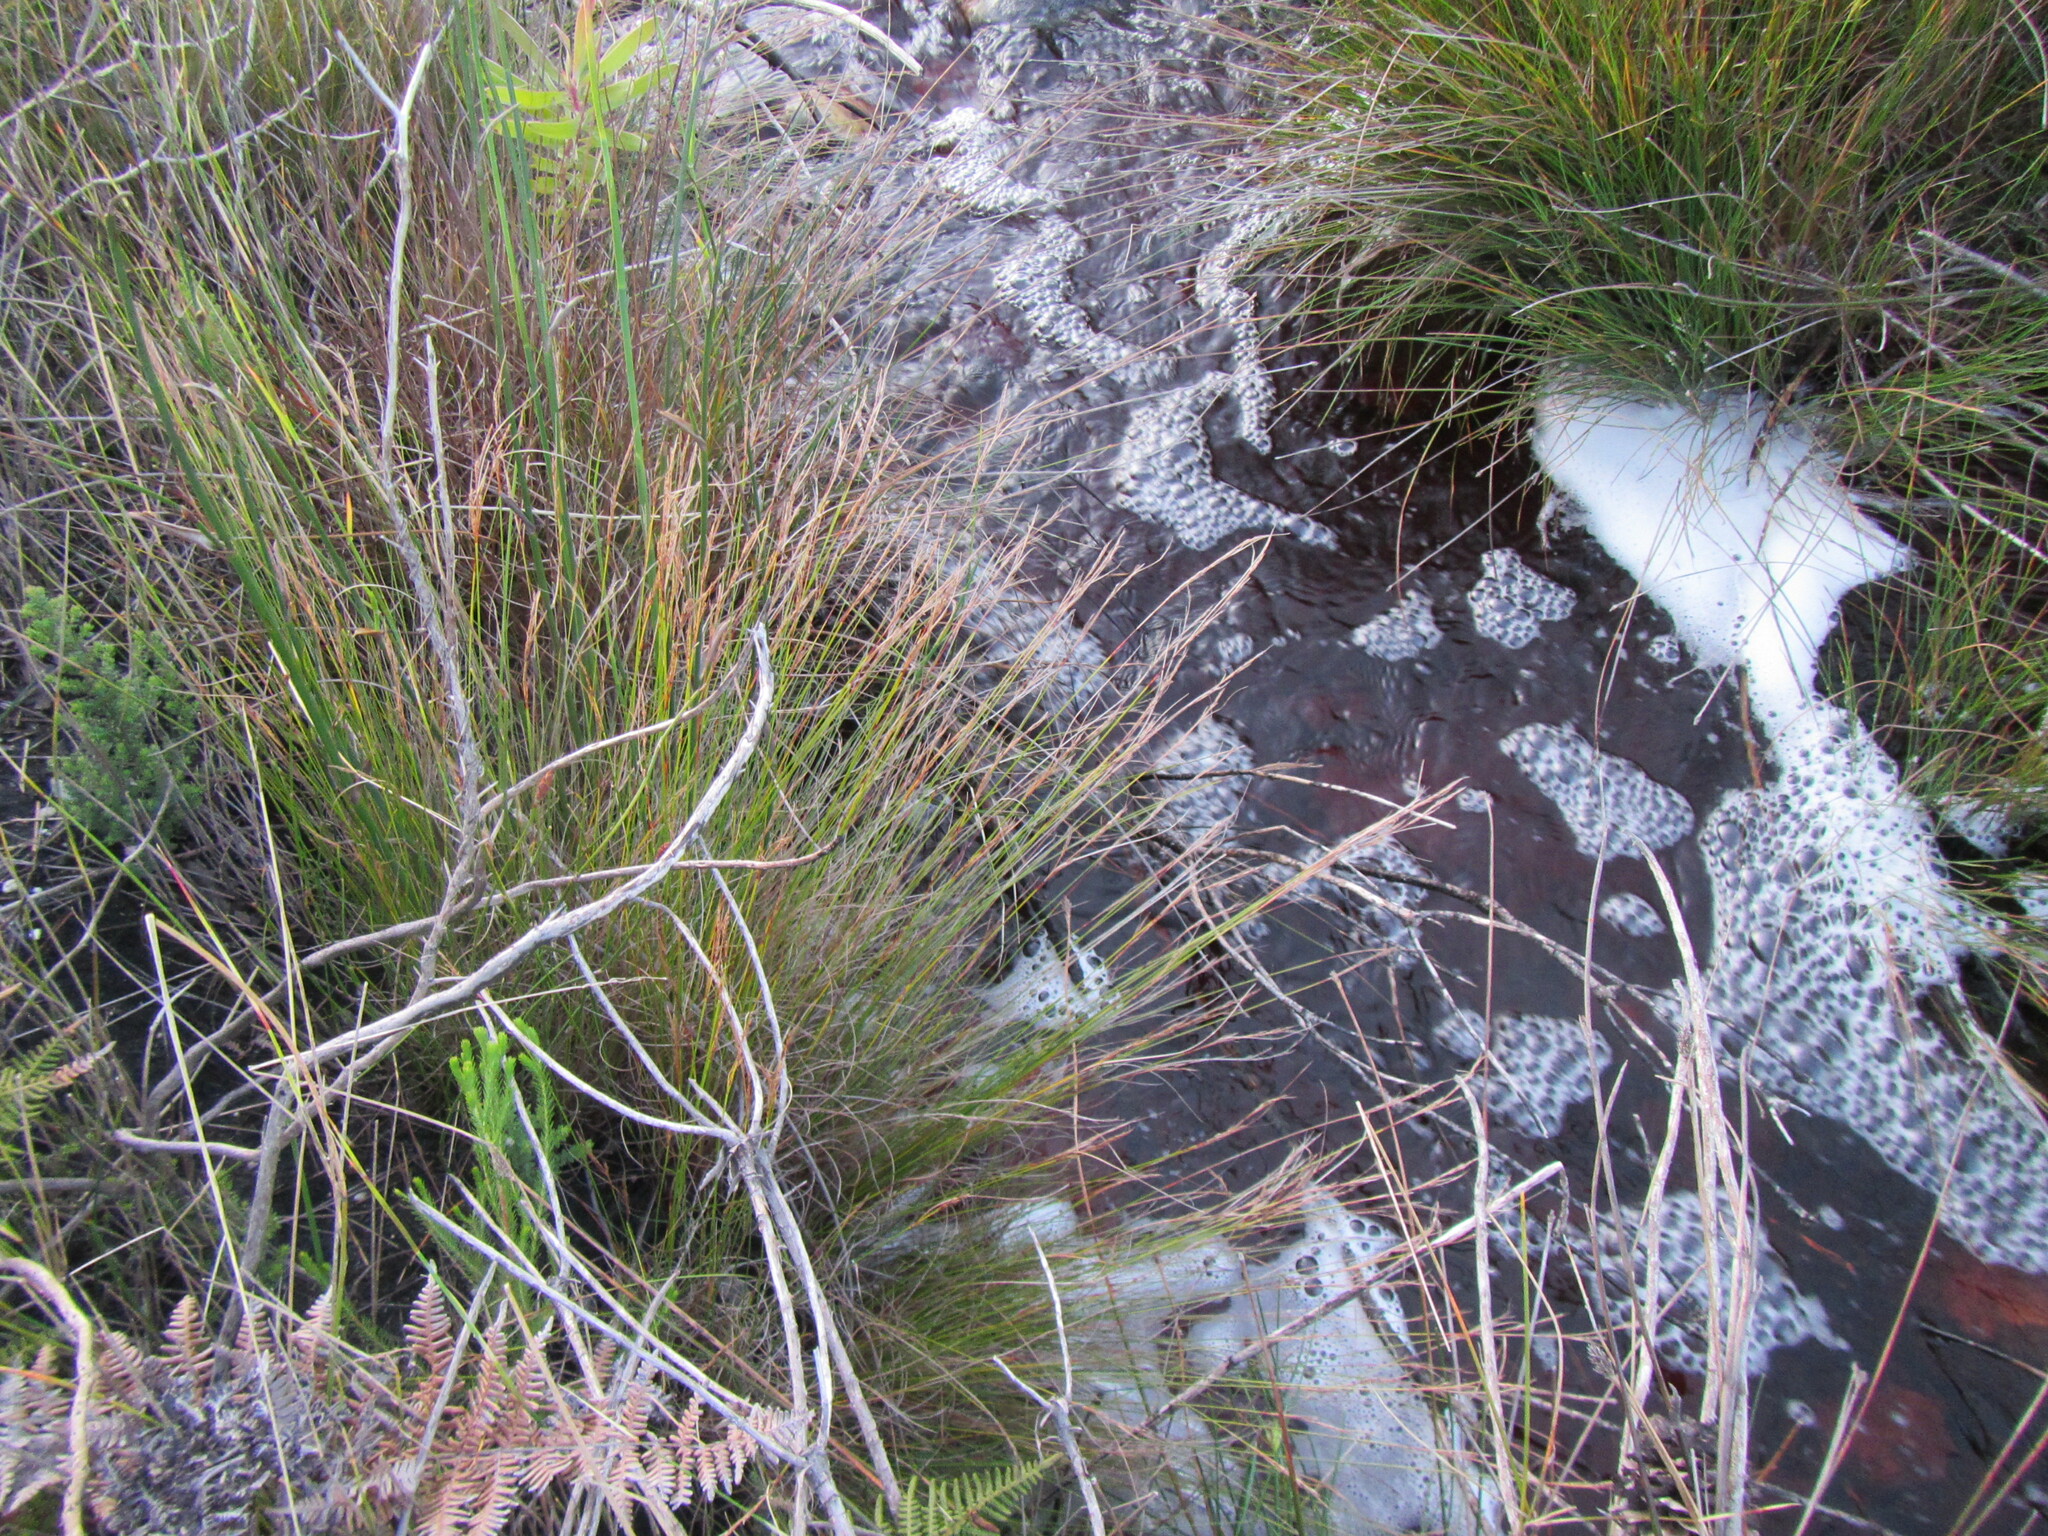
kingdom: Plantae
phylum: Tracheophyta
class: Liliopsida
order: Poales
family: Cyperaceae
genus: Schoenus
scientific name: Schoenus ligulatus
